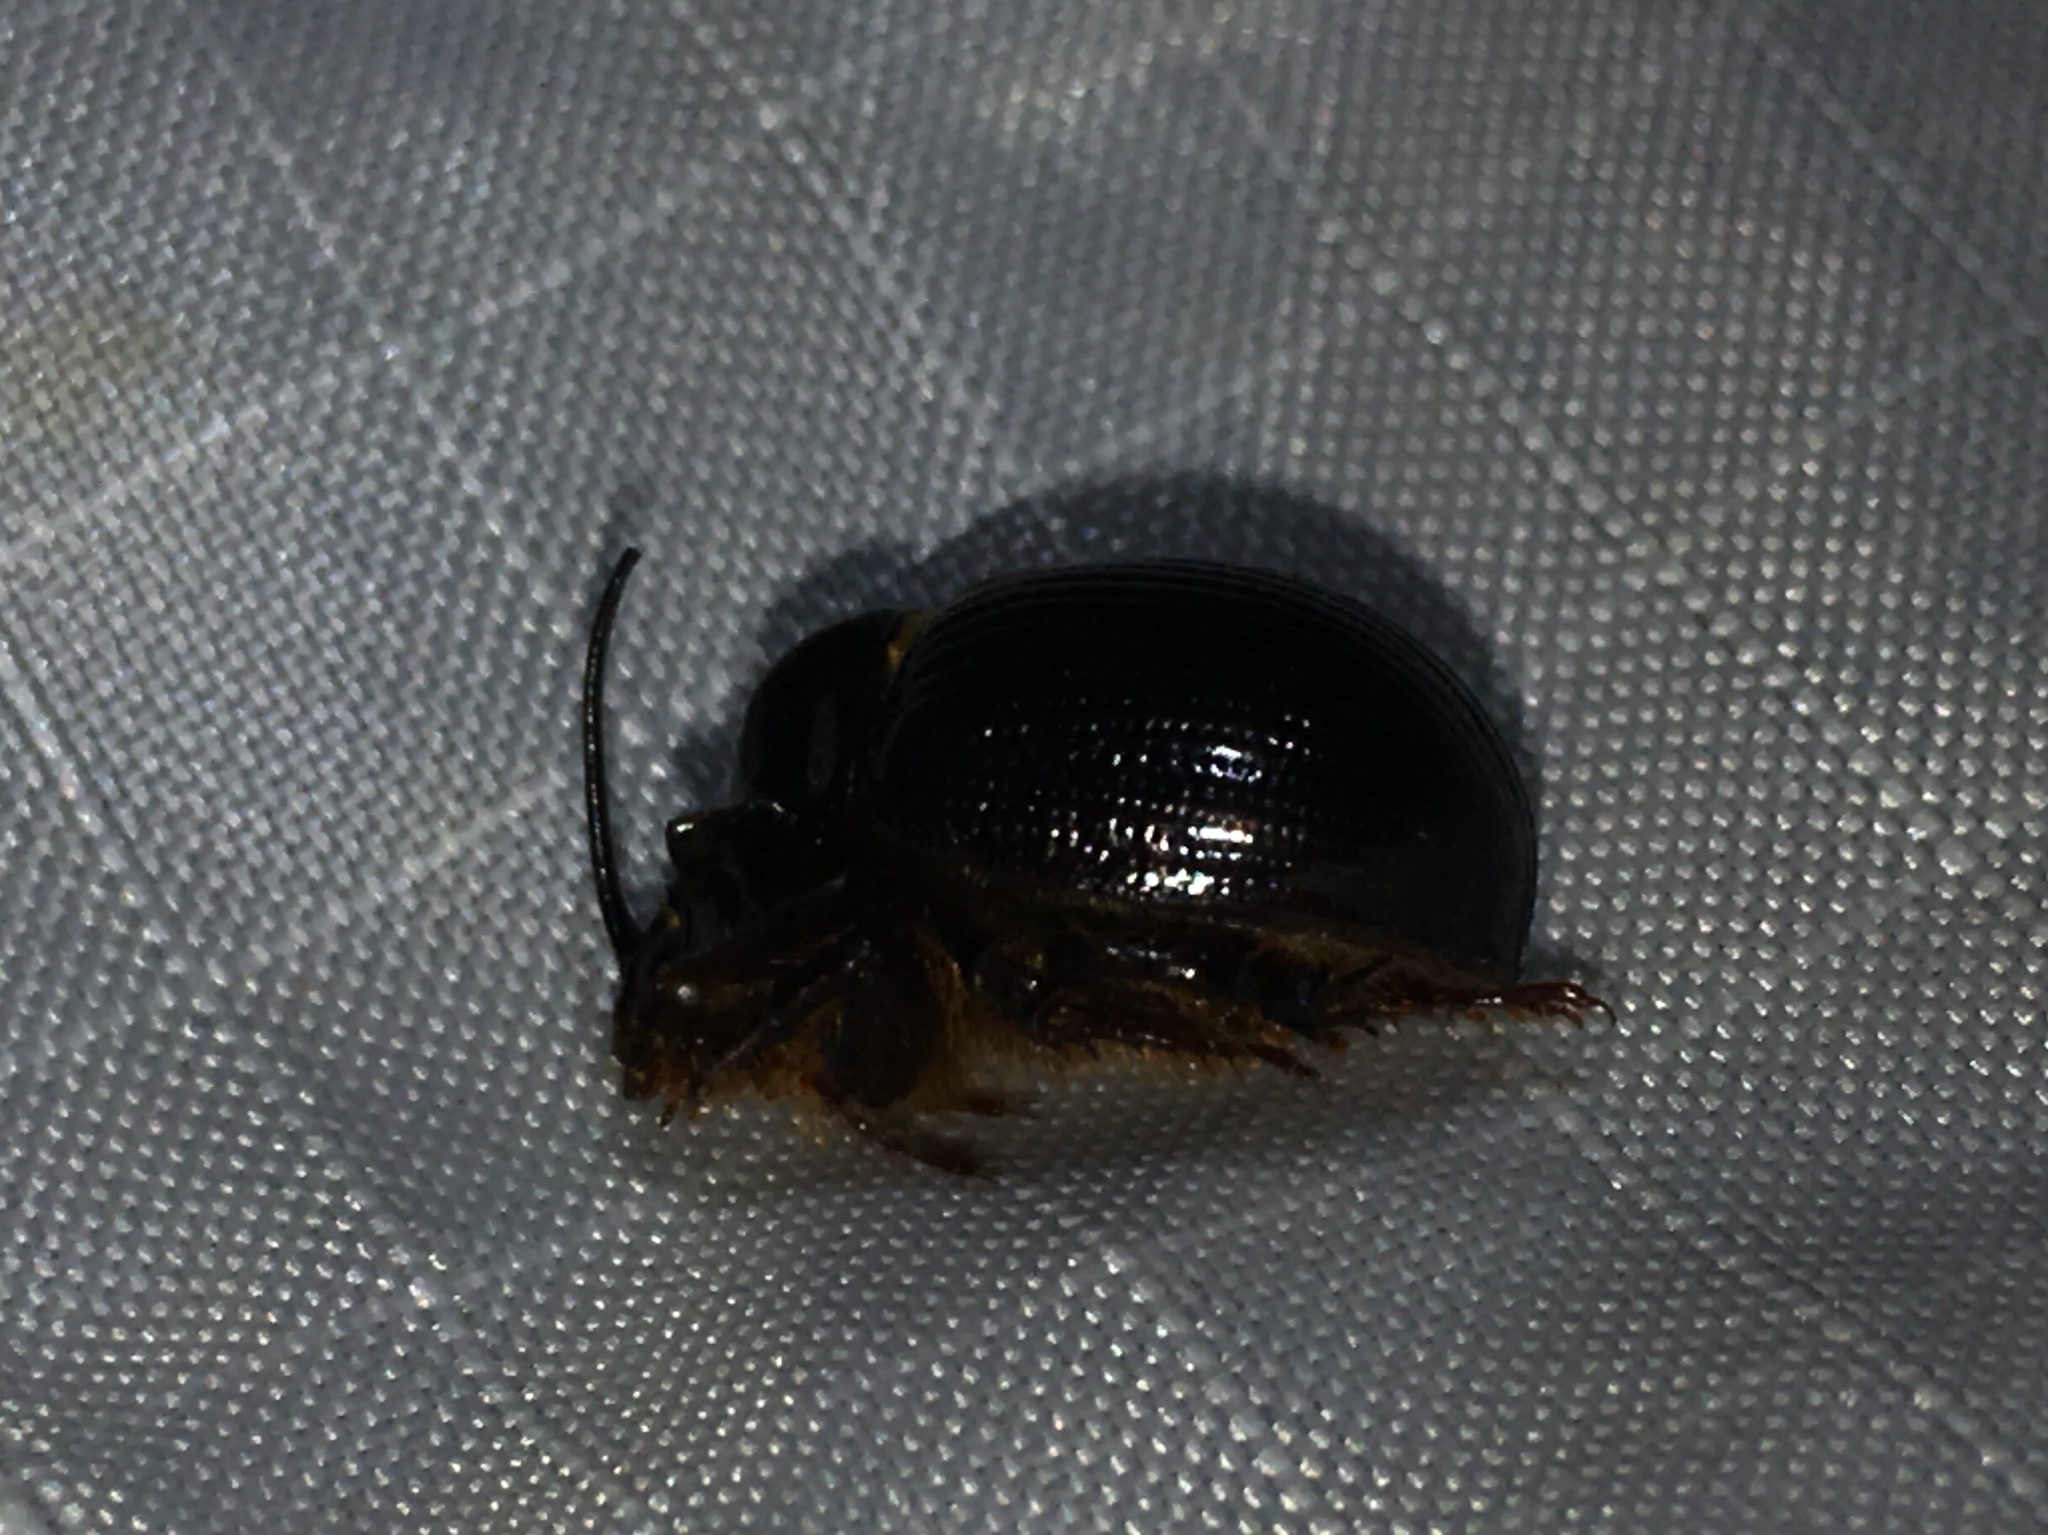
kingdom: Animalia
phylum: Arthropoda
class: Insecta
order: Coleoptera
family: Geotrupidae
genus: Odonteus
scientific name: Odonteus obesus
